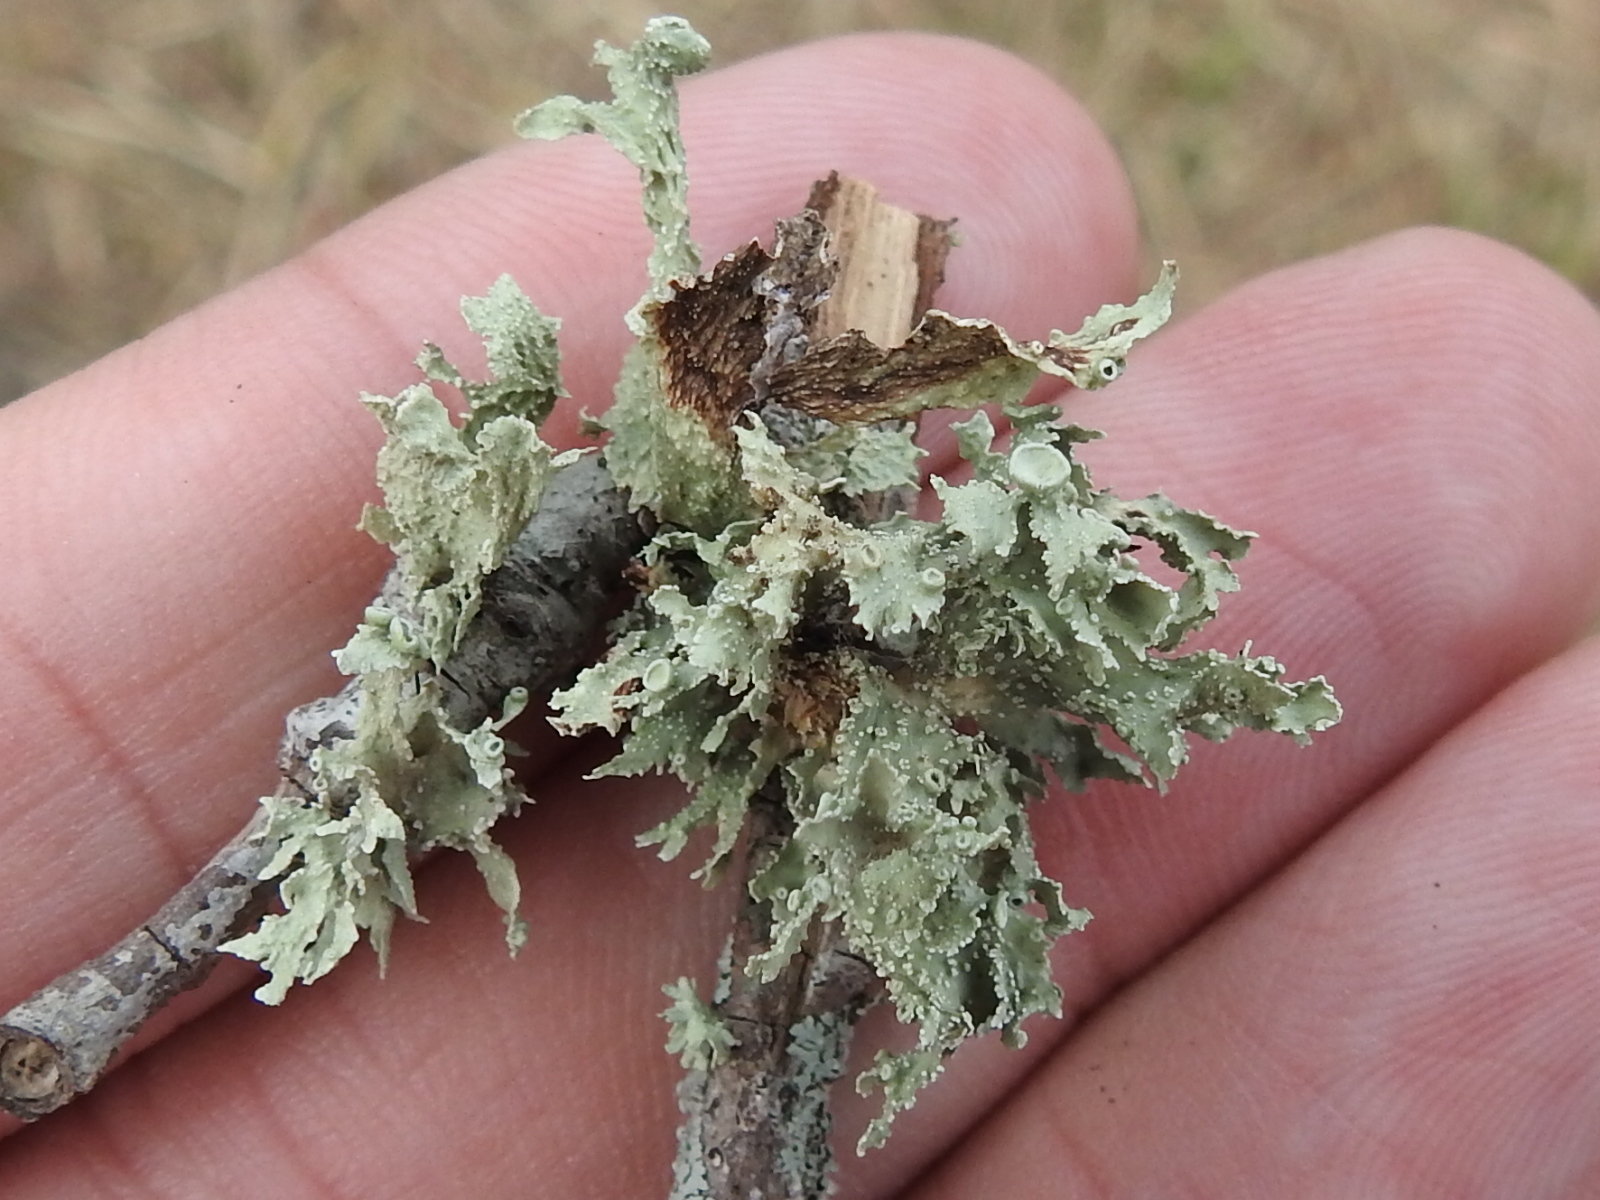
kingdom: Fungi
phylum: Ascomycota
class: Lecanoromycetes
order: Lecanorales
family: Ramalinaceae
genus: Ramalina
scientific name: Ramalina celastri
